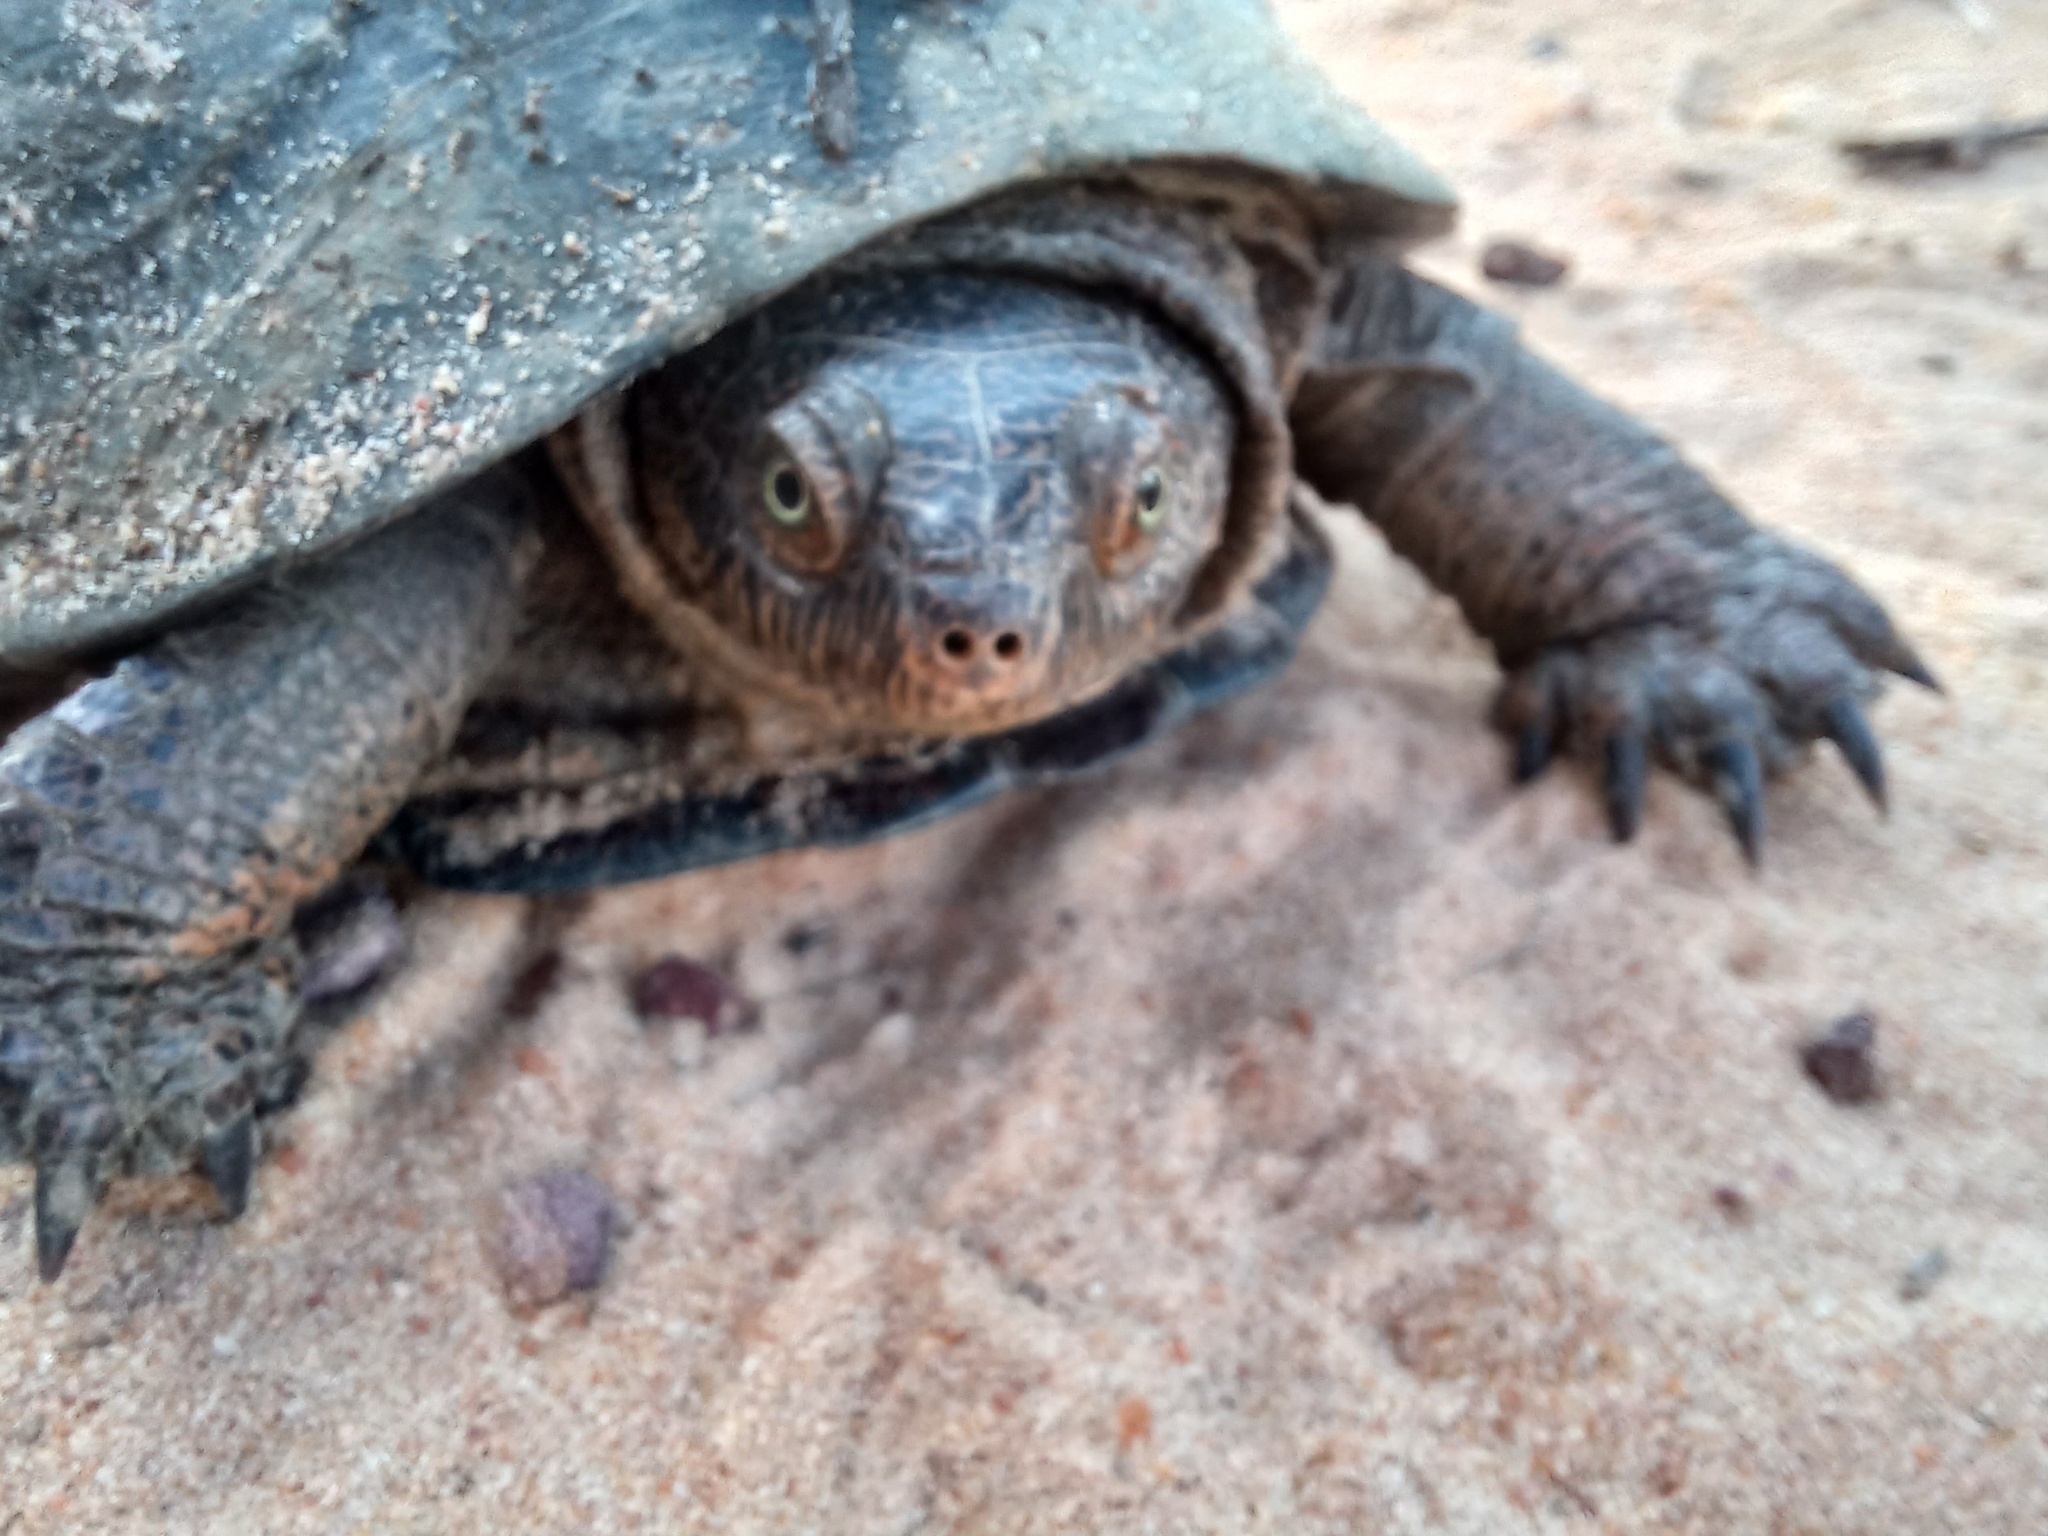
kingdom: Animalia
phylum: Chordata
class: Testudines
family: Pelomedusidae
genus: Pelusios
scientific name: Pelusios sinuatus
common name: Serrated hinged terrapin
